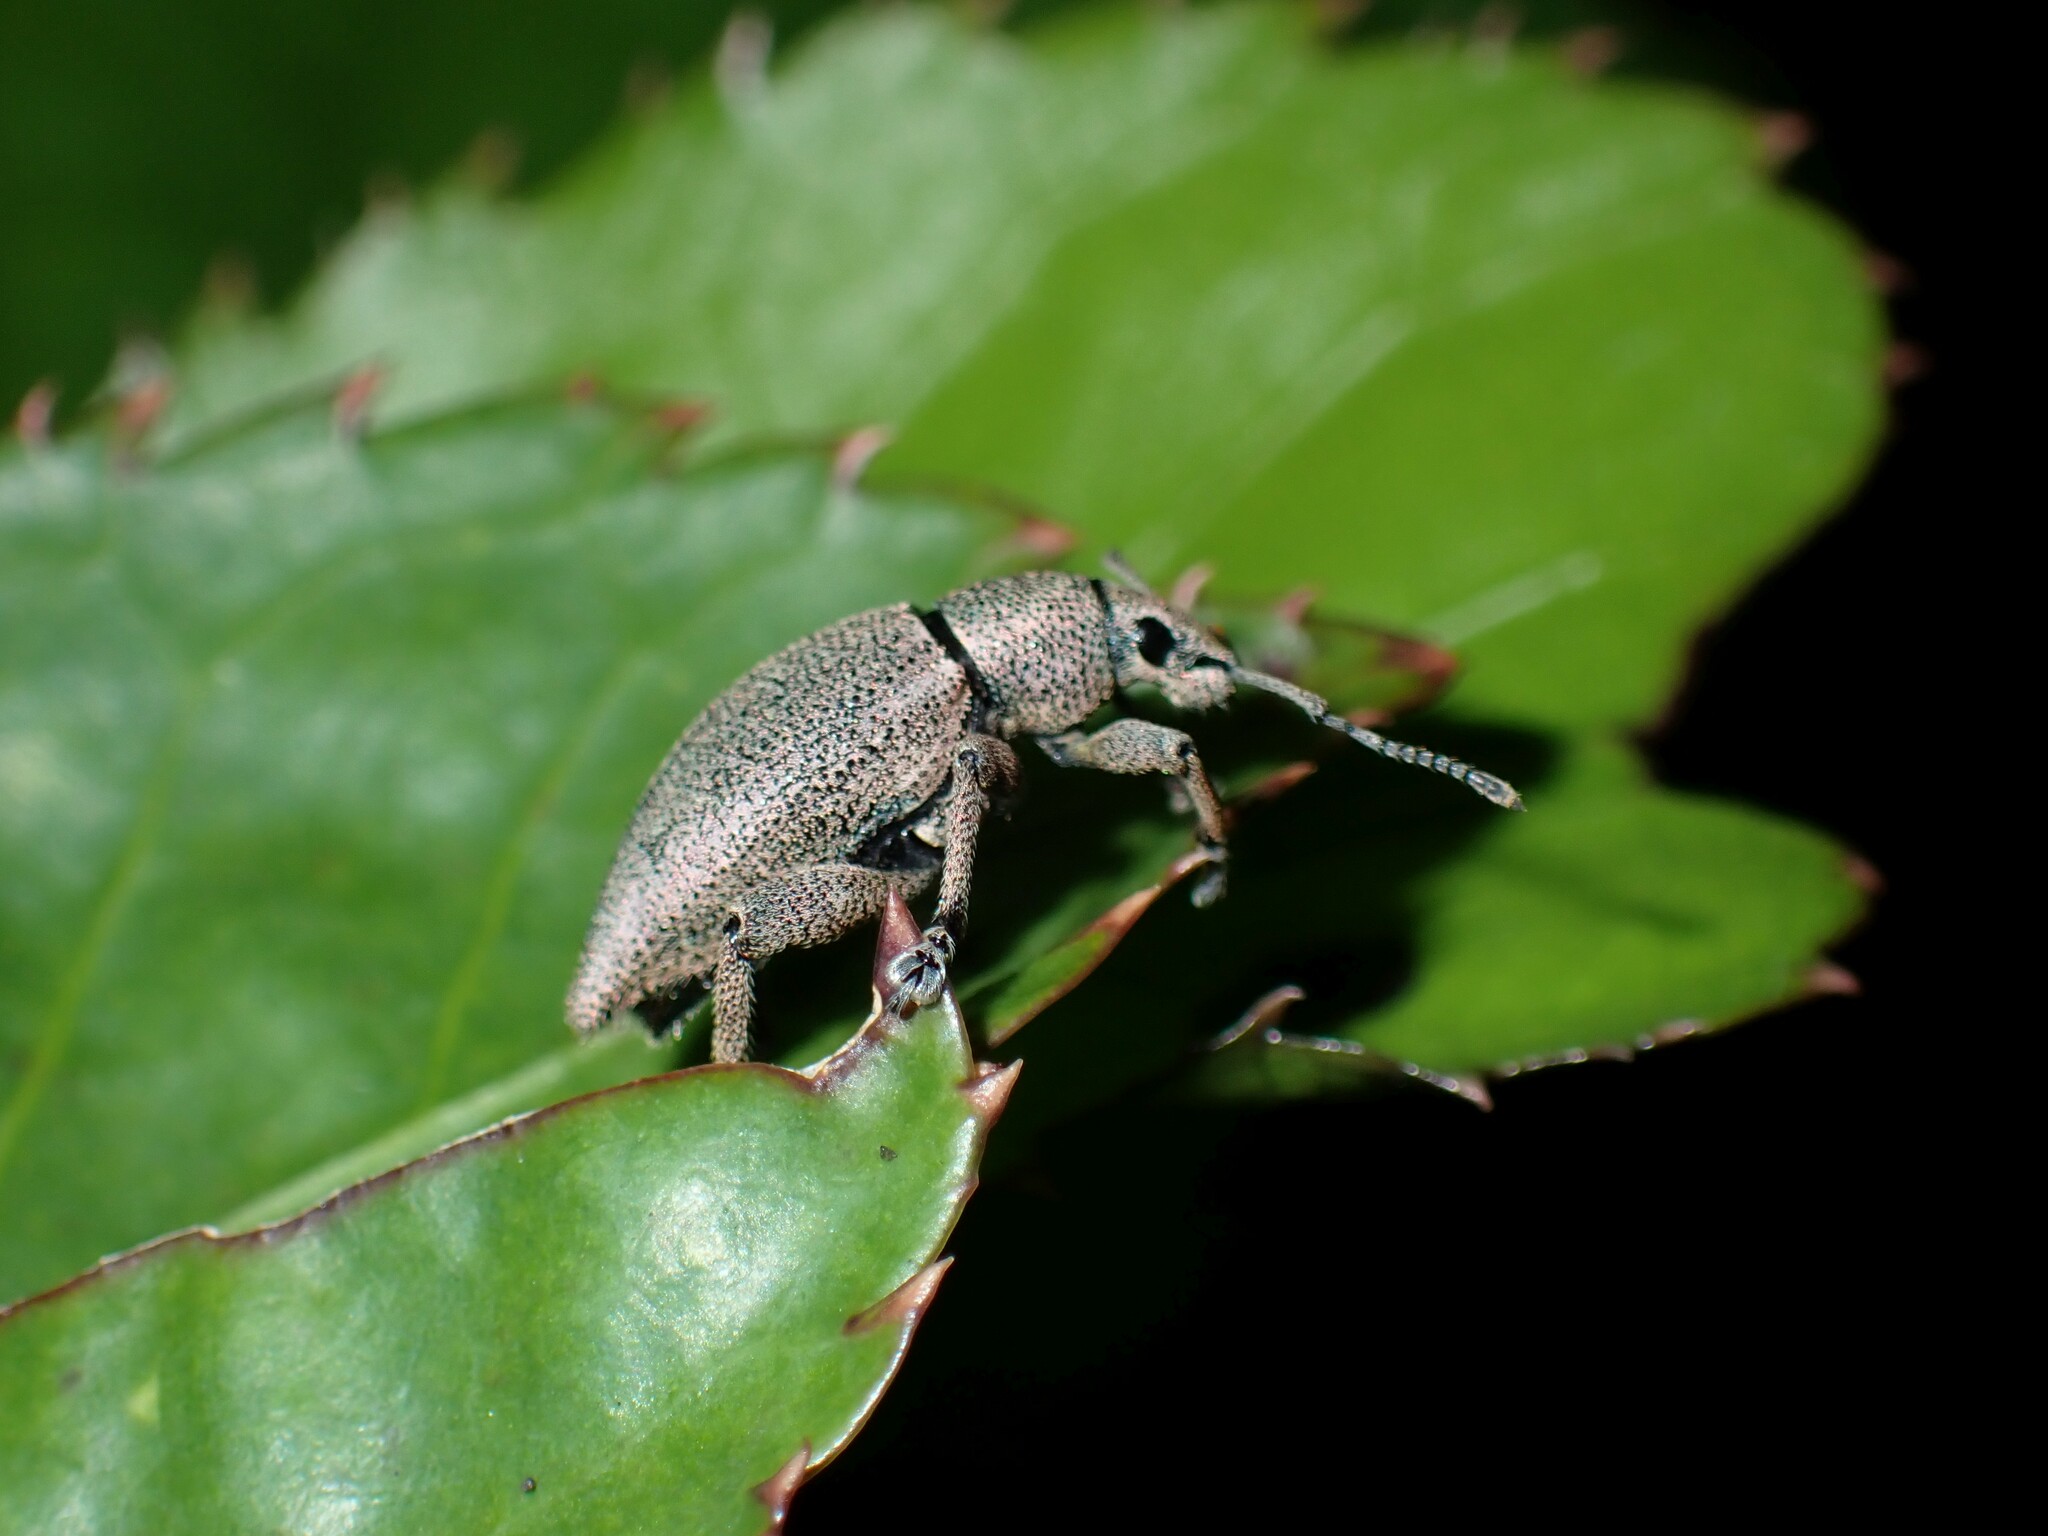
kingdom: Animalia
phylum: Arthropoda
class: Insecta
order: Coleoptera
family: Curculionidae
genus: Elytrurus
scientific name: Elytrurus marginatus
